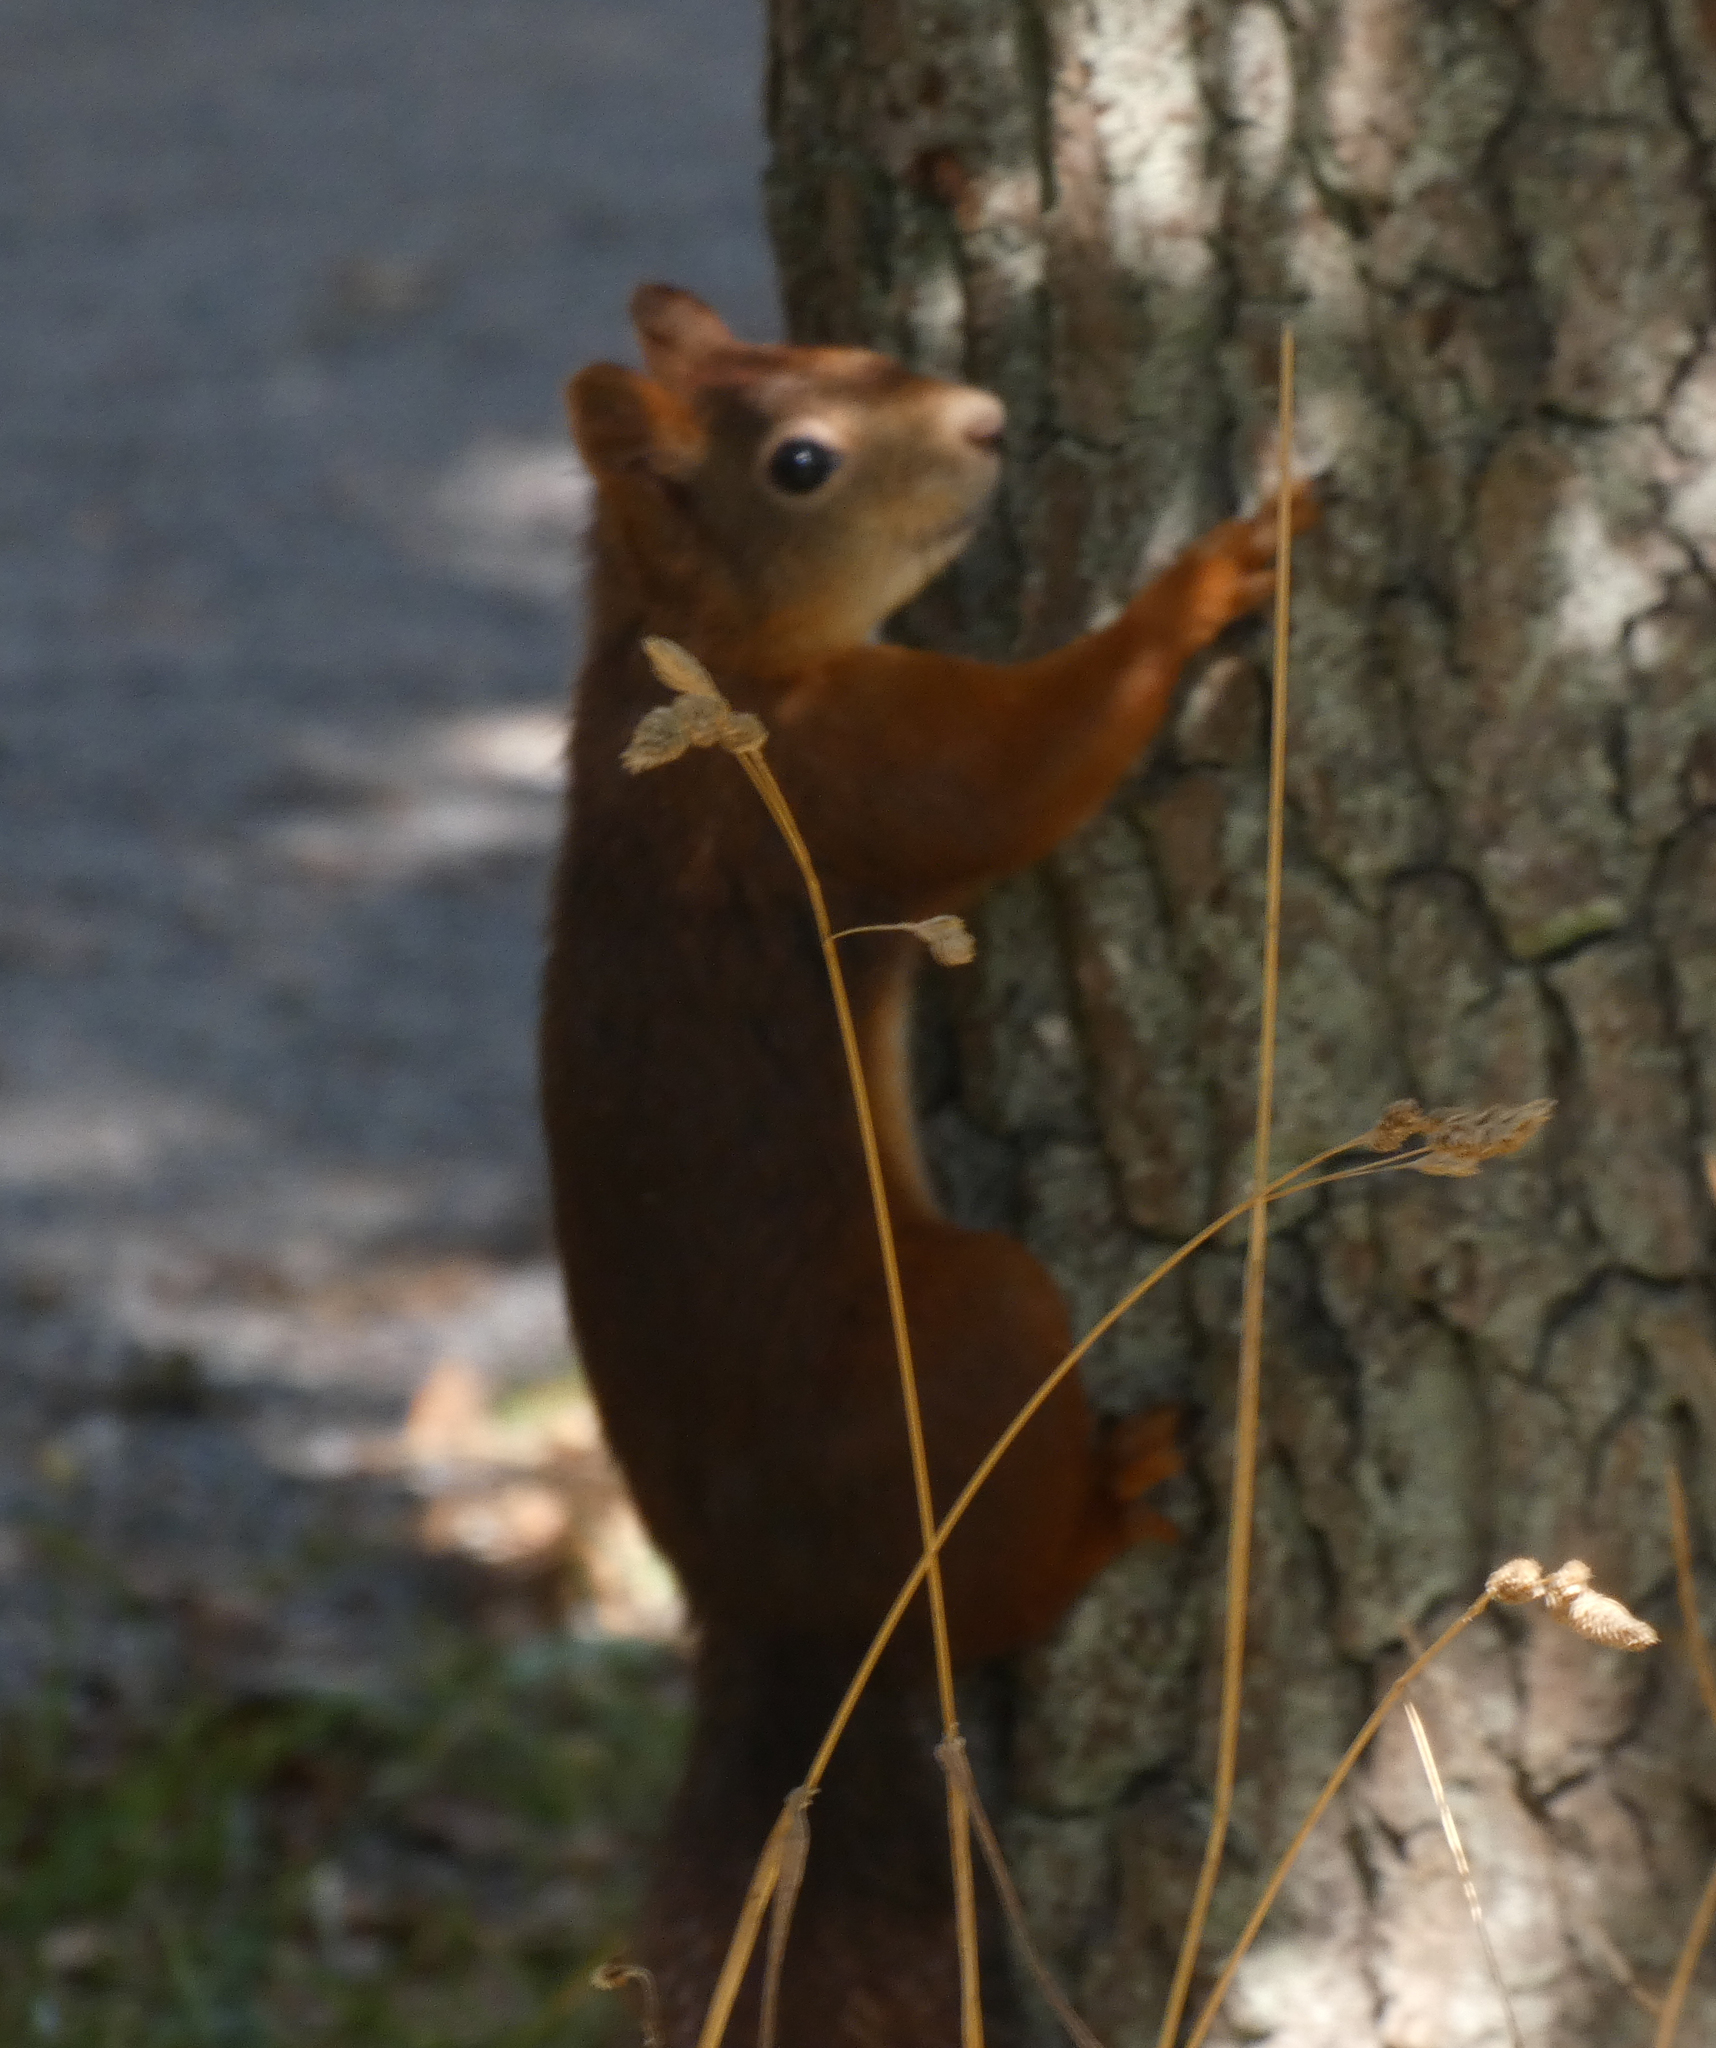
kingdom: Animalia
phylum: Chordata
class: Mammalia
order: Rodentia
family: Sciuridae
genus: Sciurus
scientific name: Sciurus vulgaris
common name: Eurasian red squirrel
